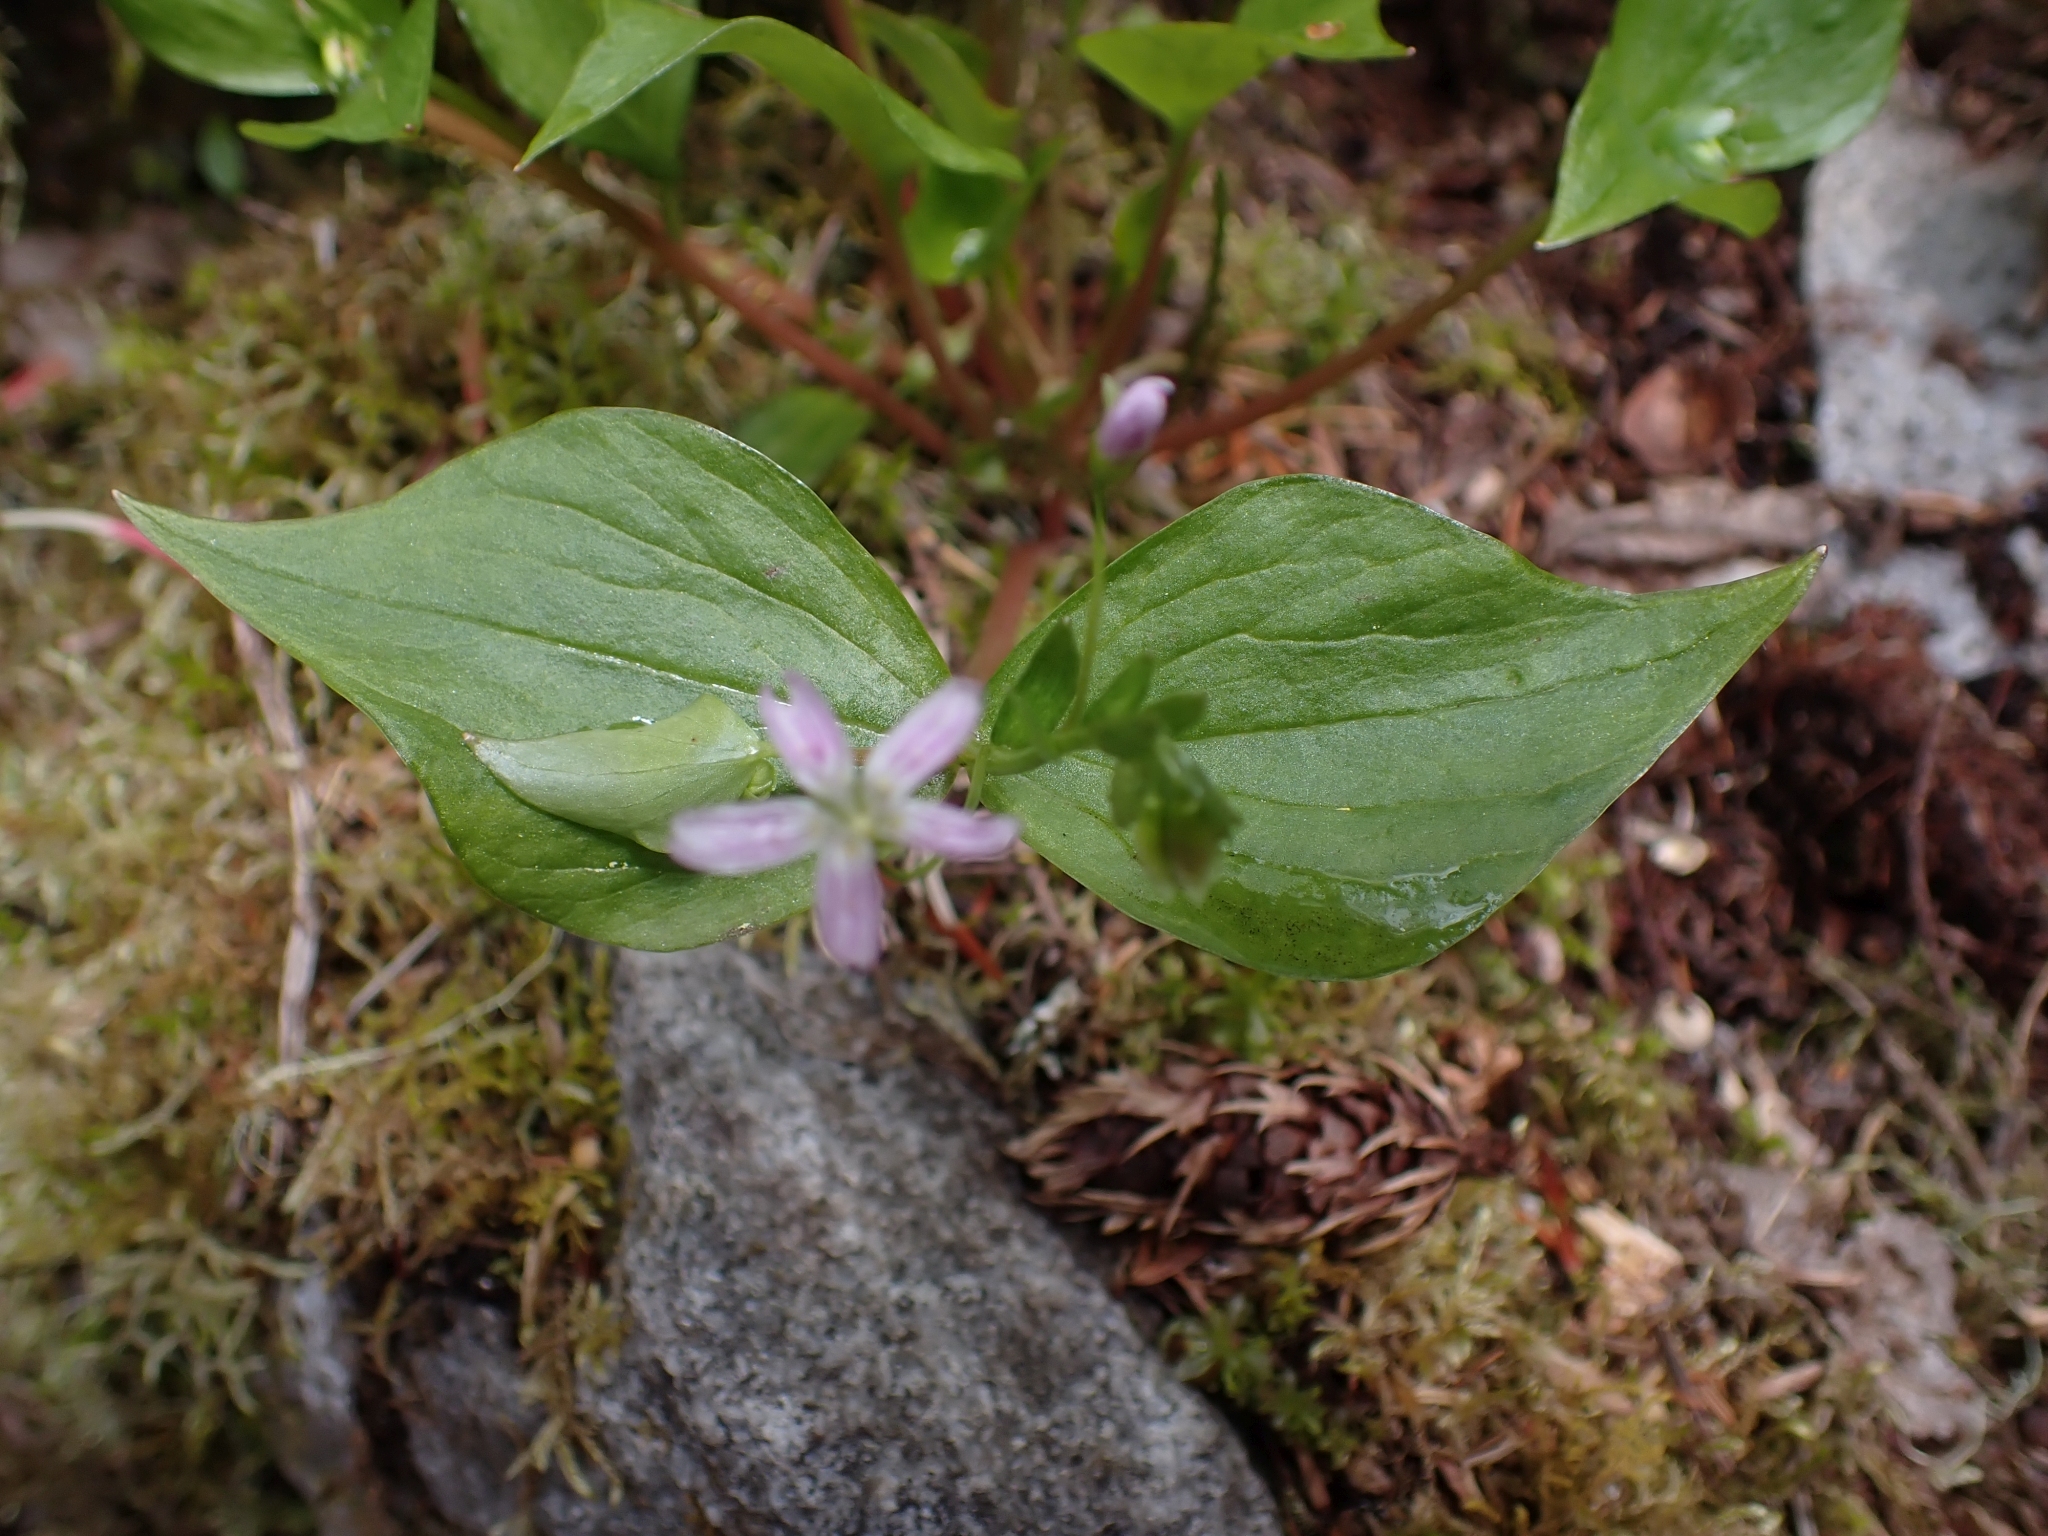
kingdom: Plantae
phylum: Tracheophyta
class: Magnoliopsida
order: Caryophyllales
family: Montiaceae
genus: Claytonia
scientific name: Claytonia sibirica
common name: Pink purslane
